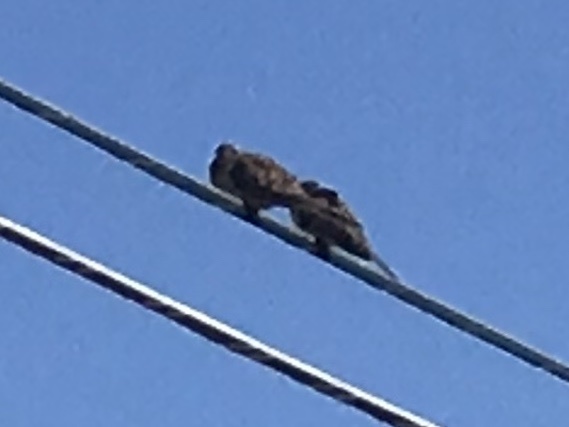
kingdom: Animalia
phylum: Chordata
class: Aves
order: Columbiformes
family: Columbidae
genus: Zenaida
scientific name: Zenaida macroura
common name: Mourning dove
